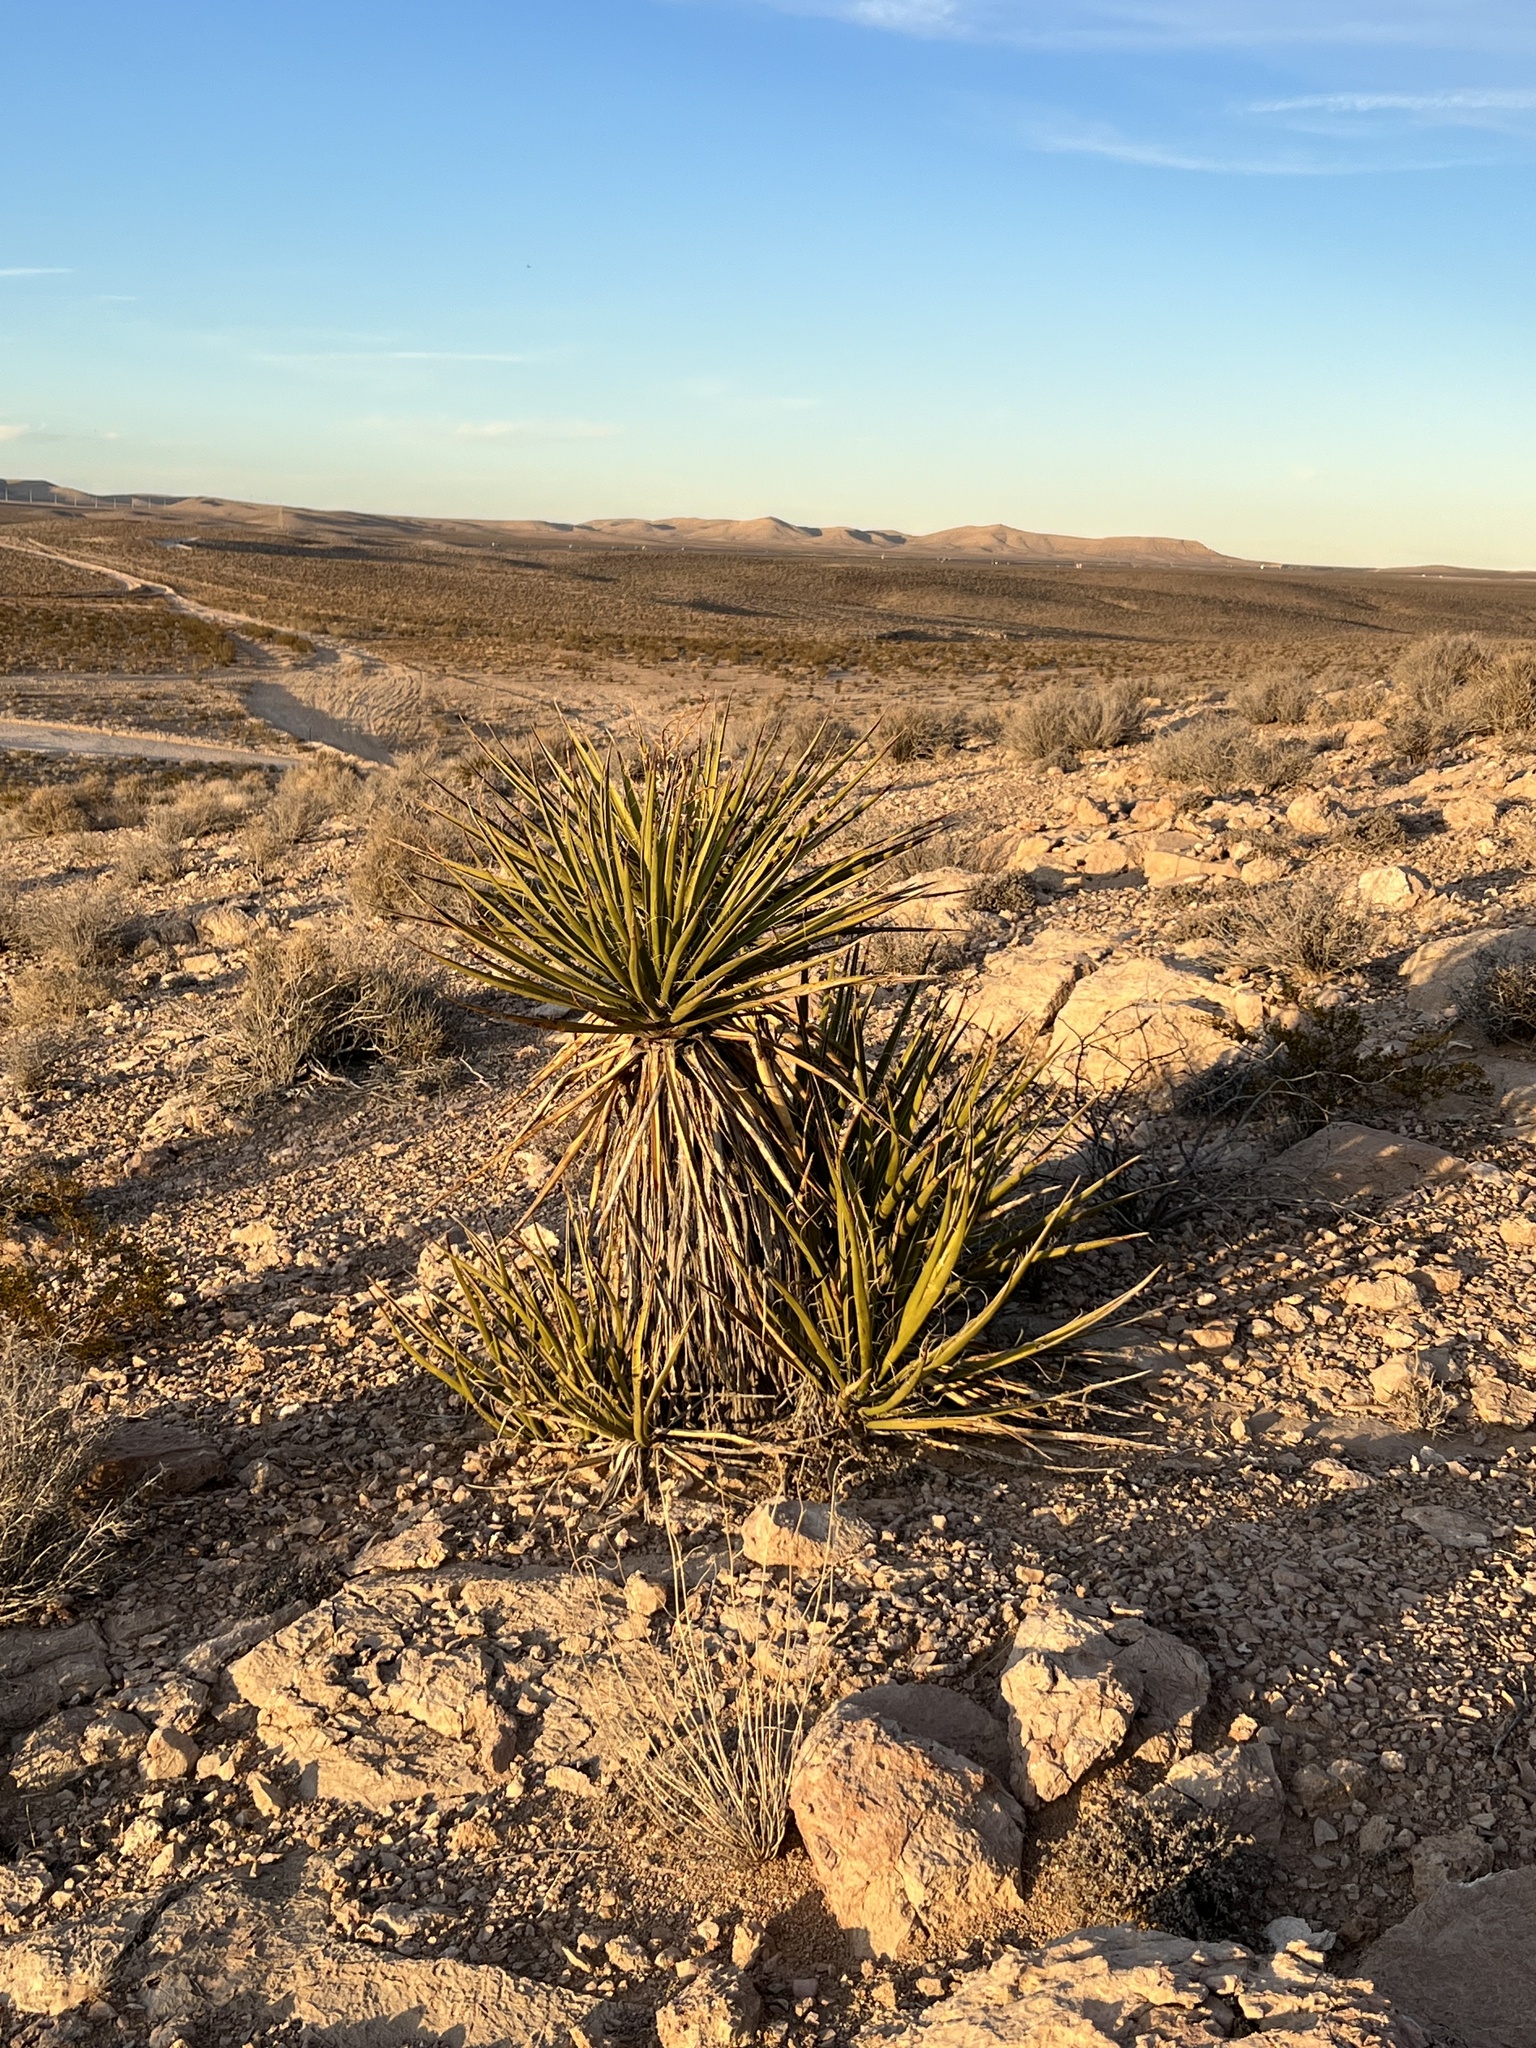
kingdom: Plantae
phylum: Tracheophyta
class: Liliopsida
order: Asparagales
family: Asparagaceae
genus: Yucca
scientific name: Yucca schidigera
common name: Mojave yucca
